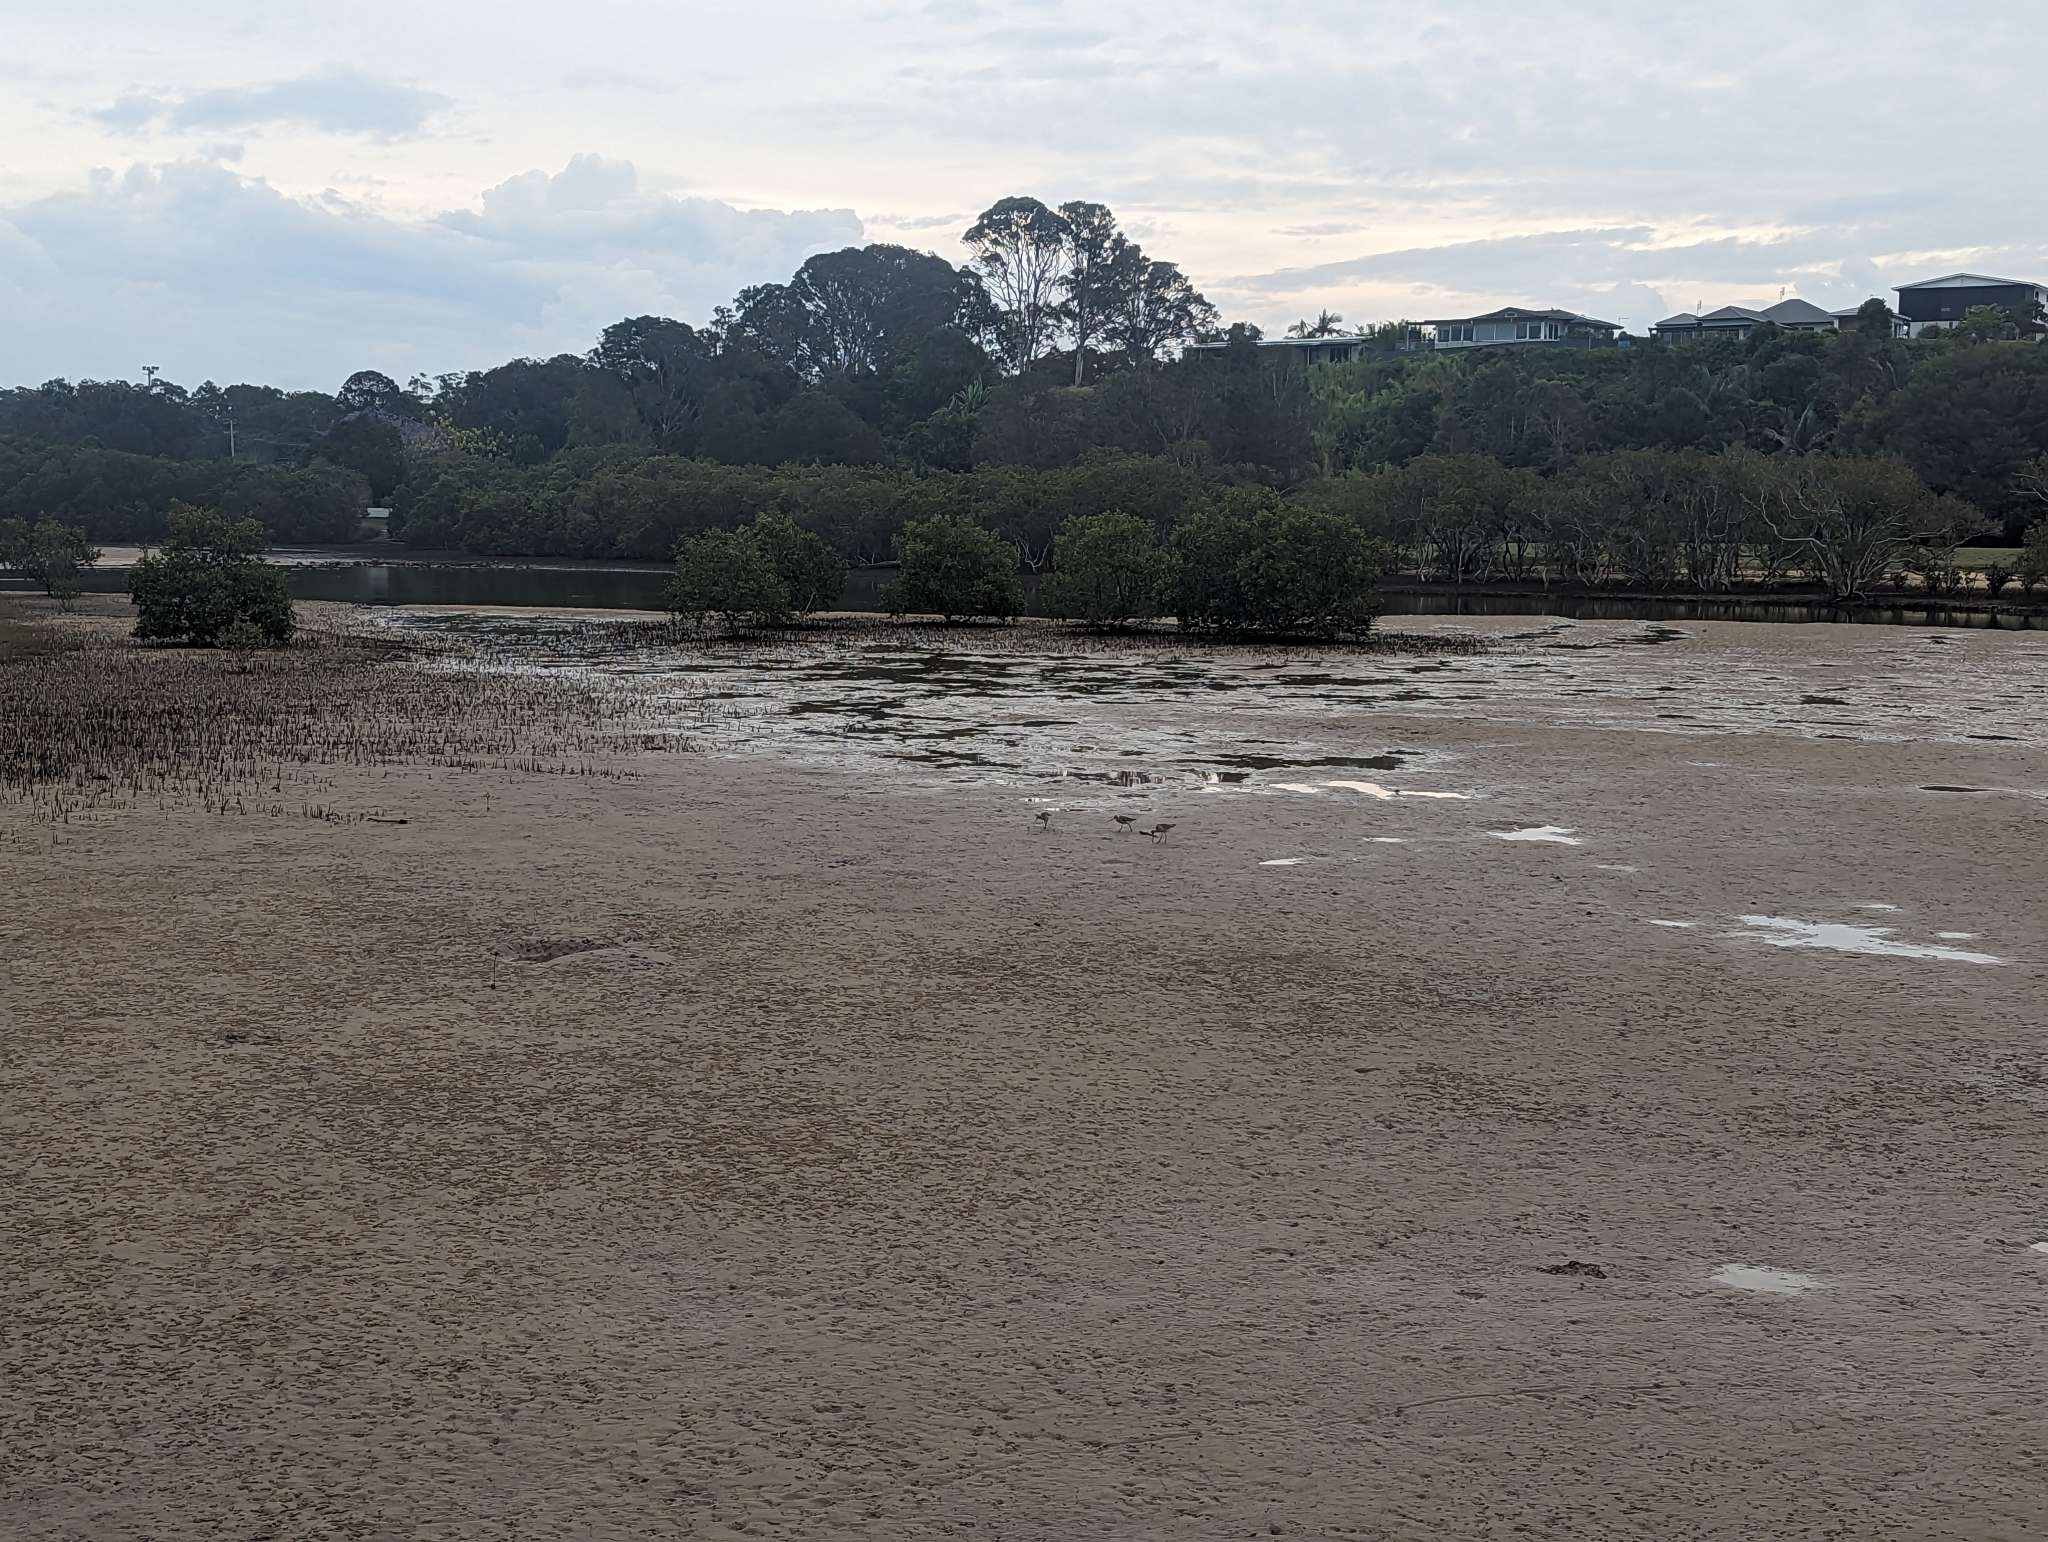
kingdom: Animalia
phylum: Chordata
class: Aves
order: Charadriiformes
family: Scolopacidae
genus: Limosa
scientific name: Limosa lapponica
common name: Bar-tailed godwit
